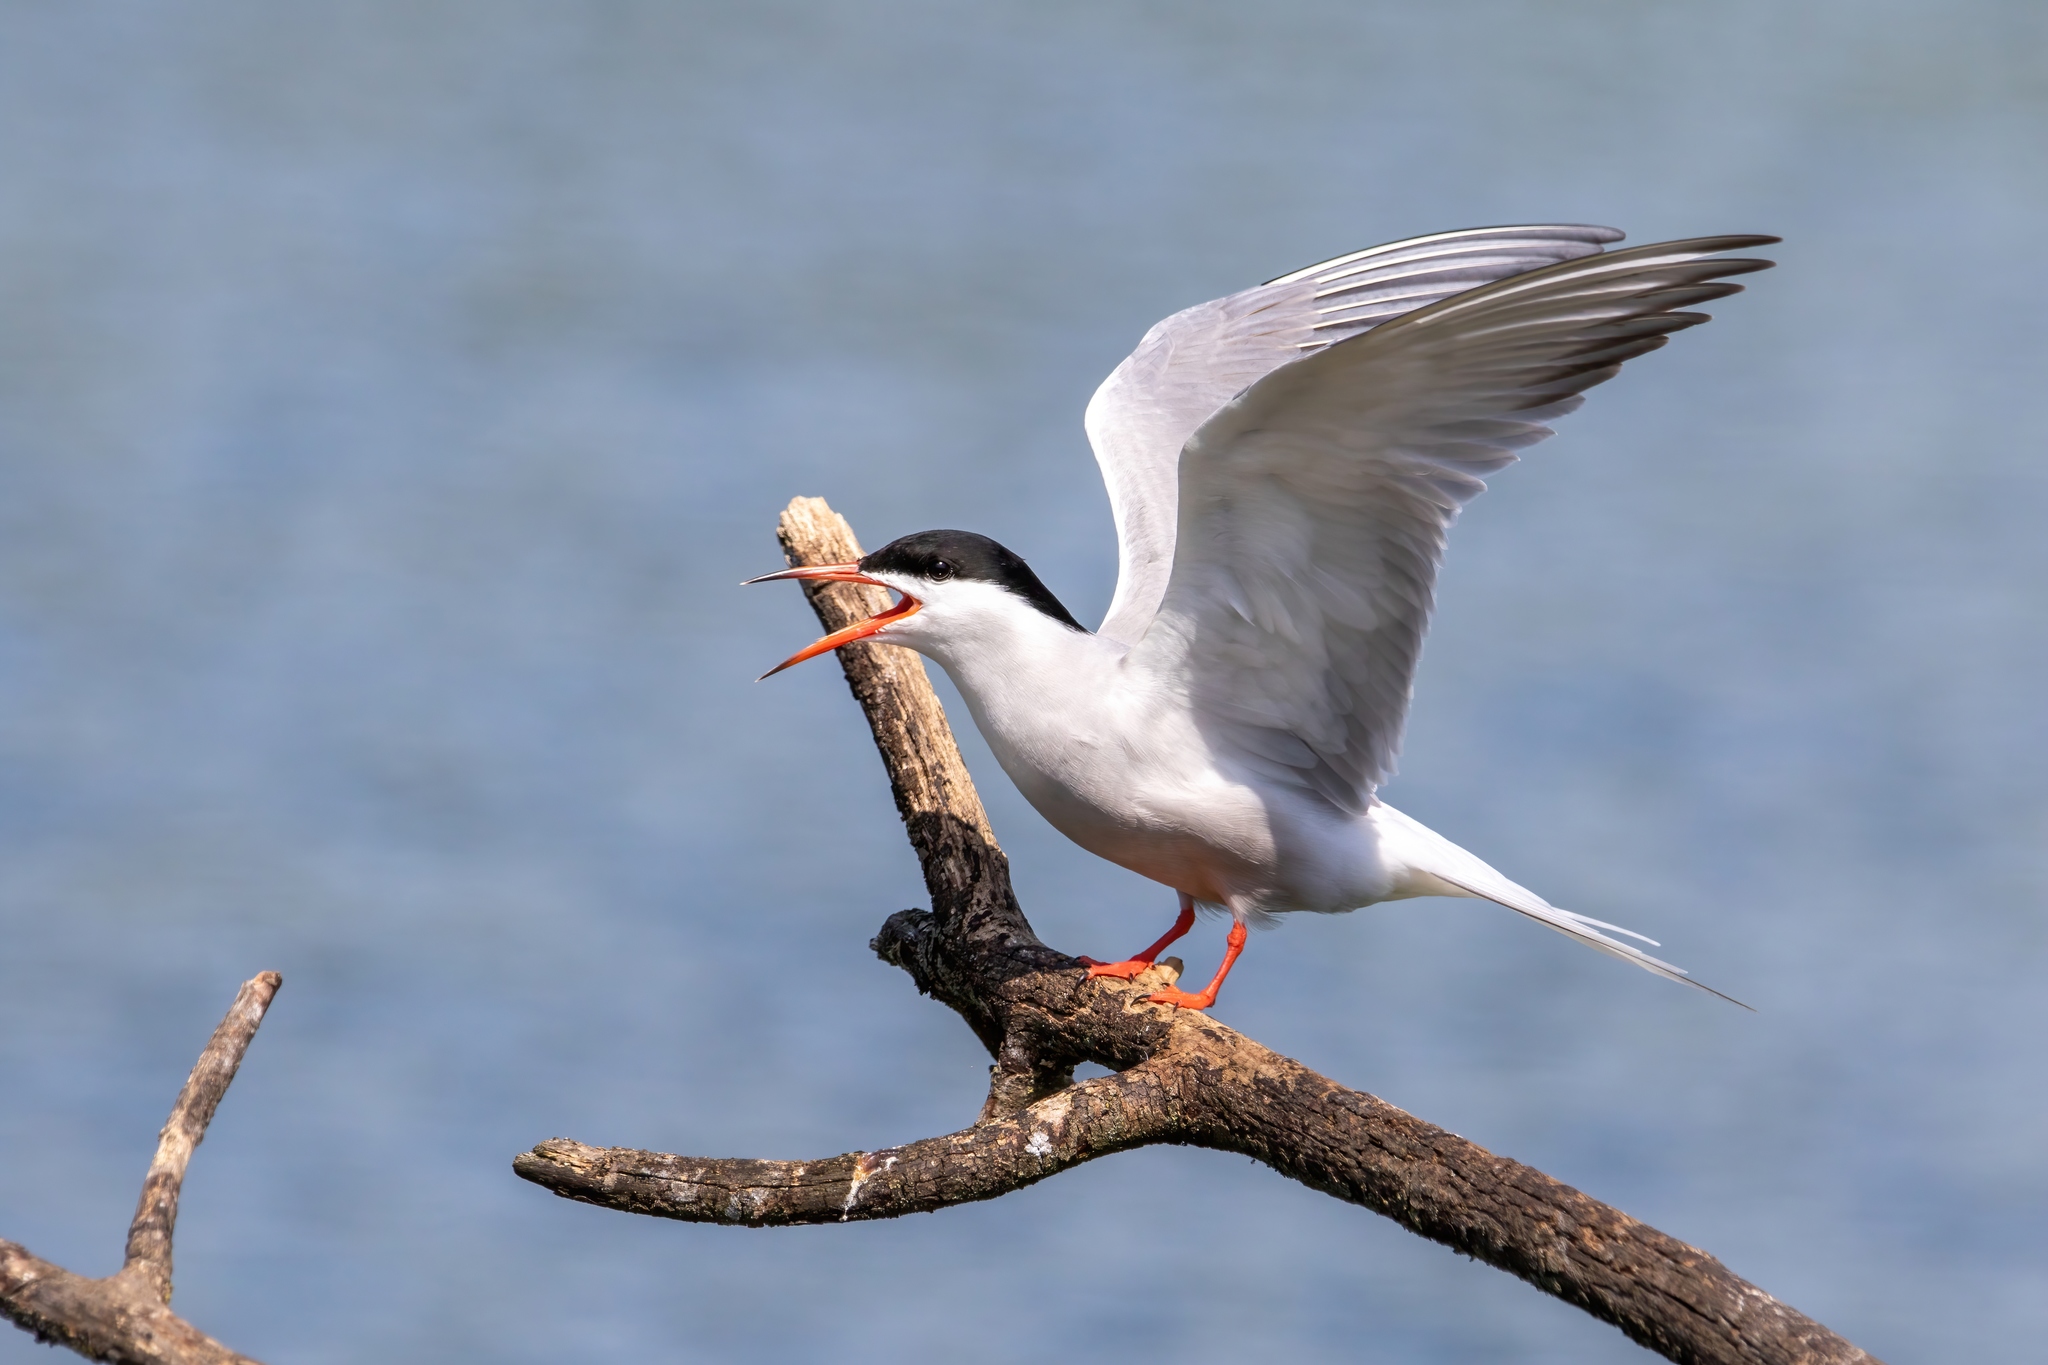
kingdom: Animalia
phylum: Chordata
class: Aves
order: Charadriiformes
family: Laridae
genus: Sterna
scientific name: Sterna hirundo
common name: Common tern
